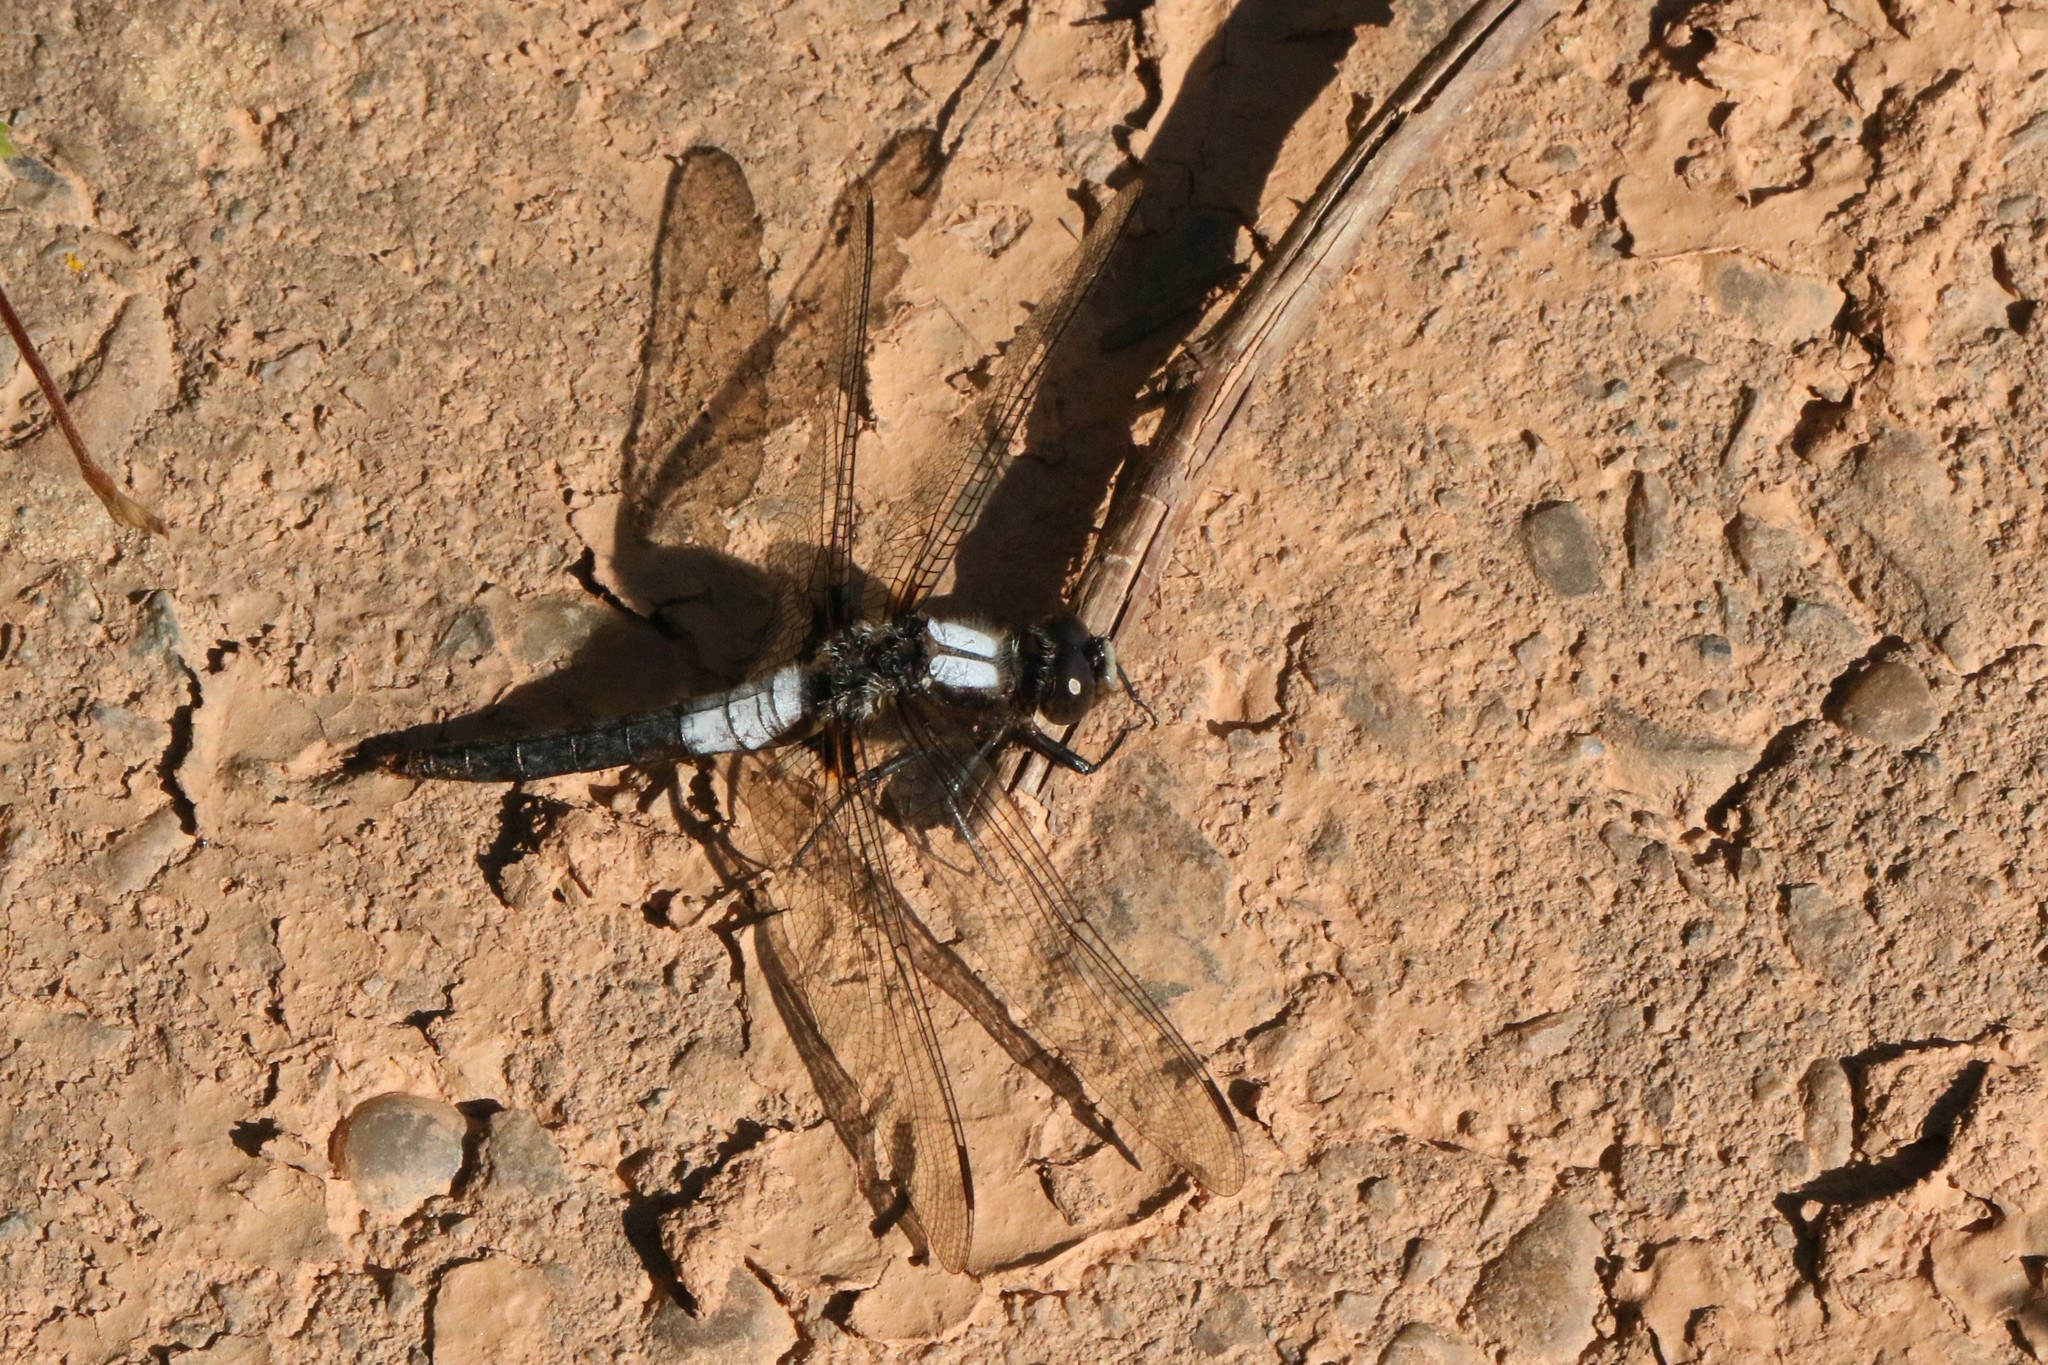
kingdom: Animalia
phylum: Arthropoda
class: Insecta
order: Odonata
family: Libellulidae
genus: Ladona
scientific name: Ladona julia
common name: Chalk-fronted corporal
